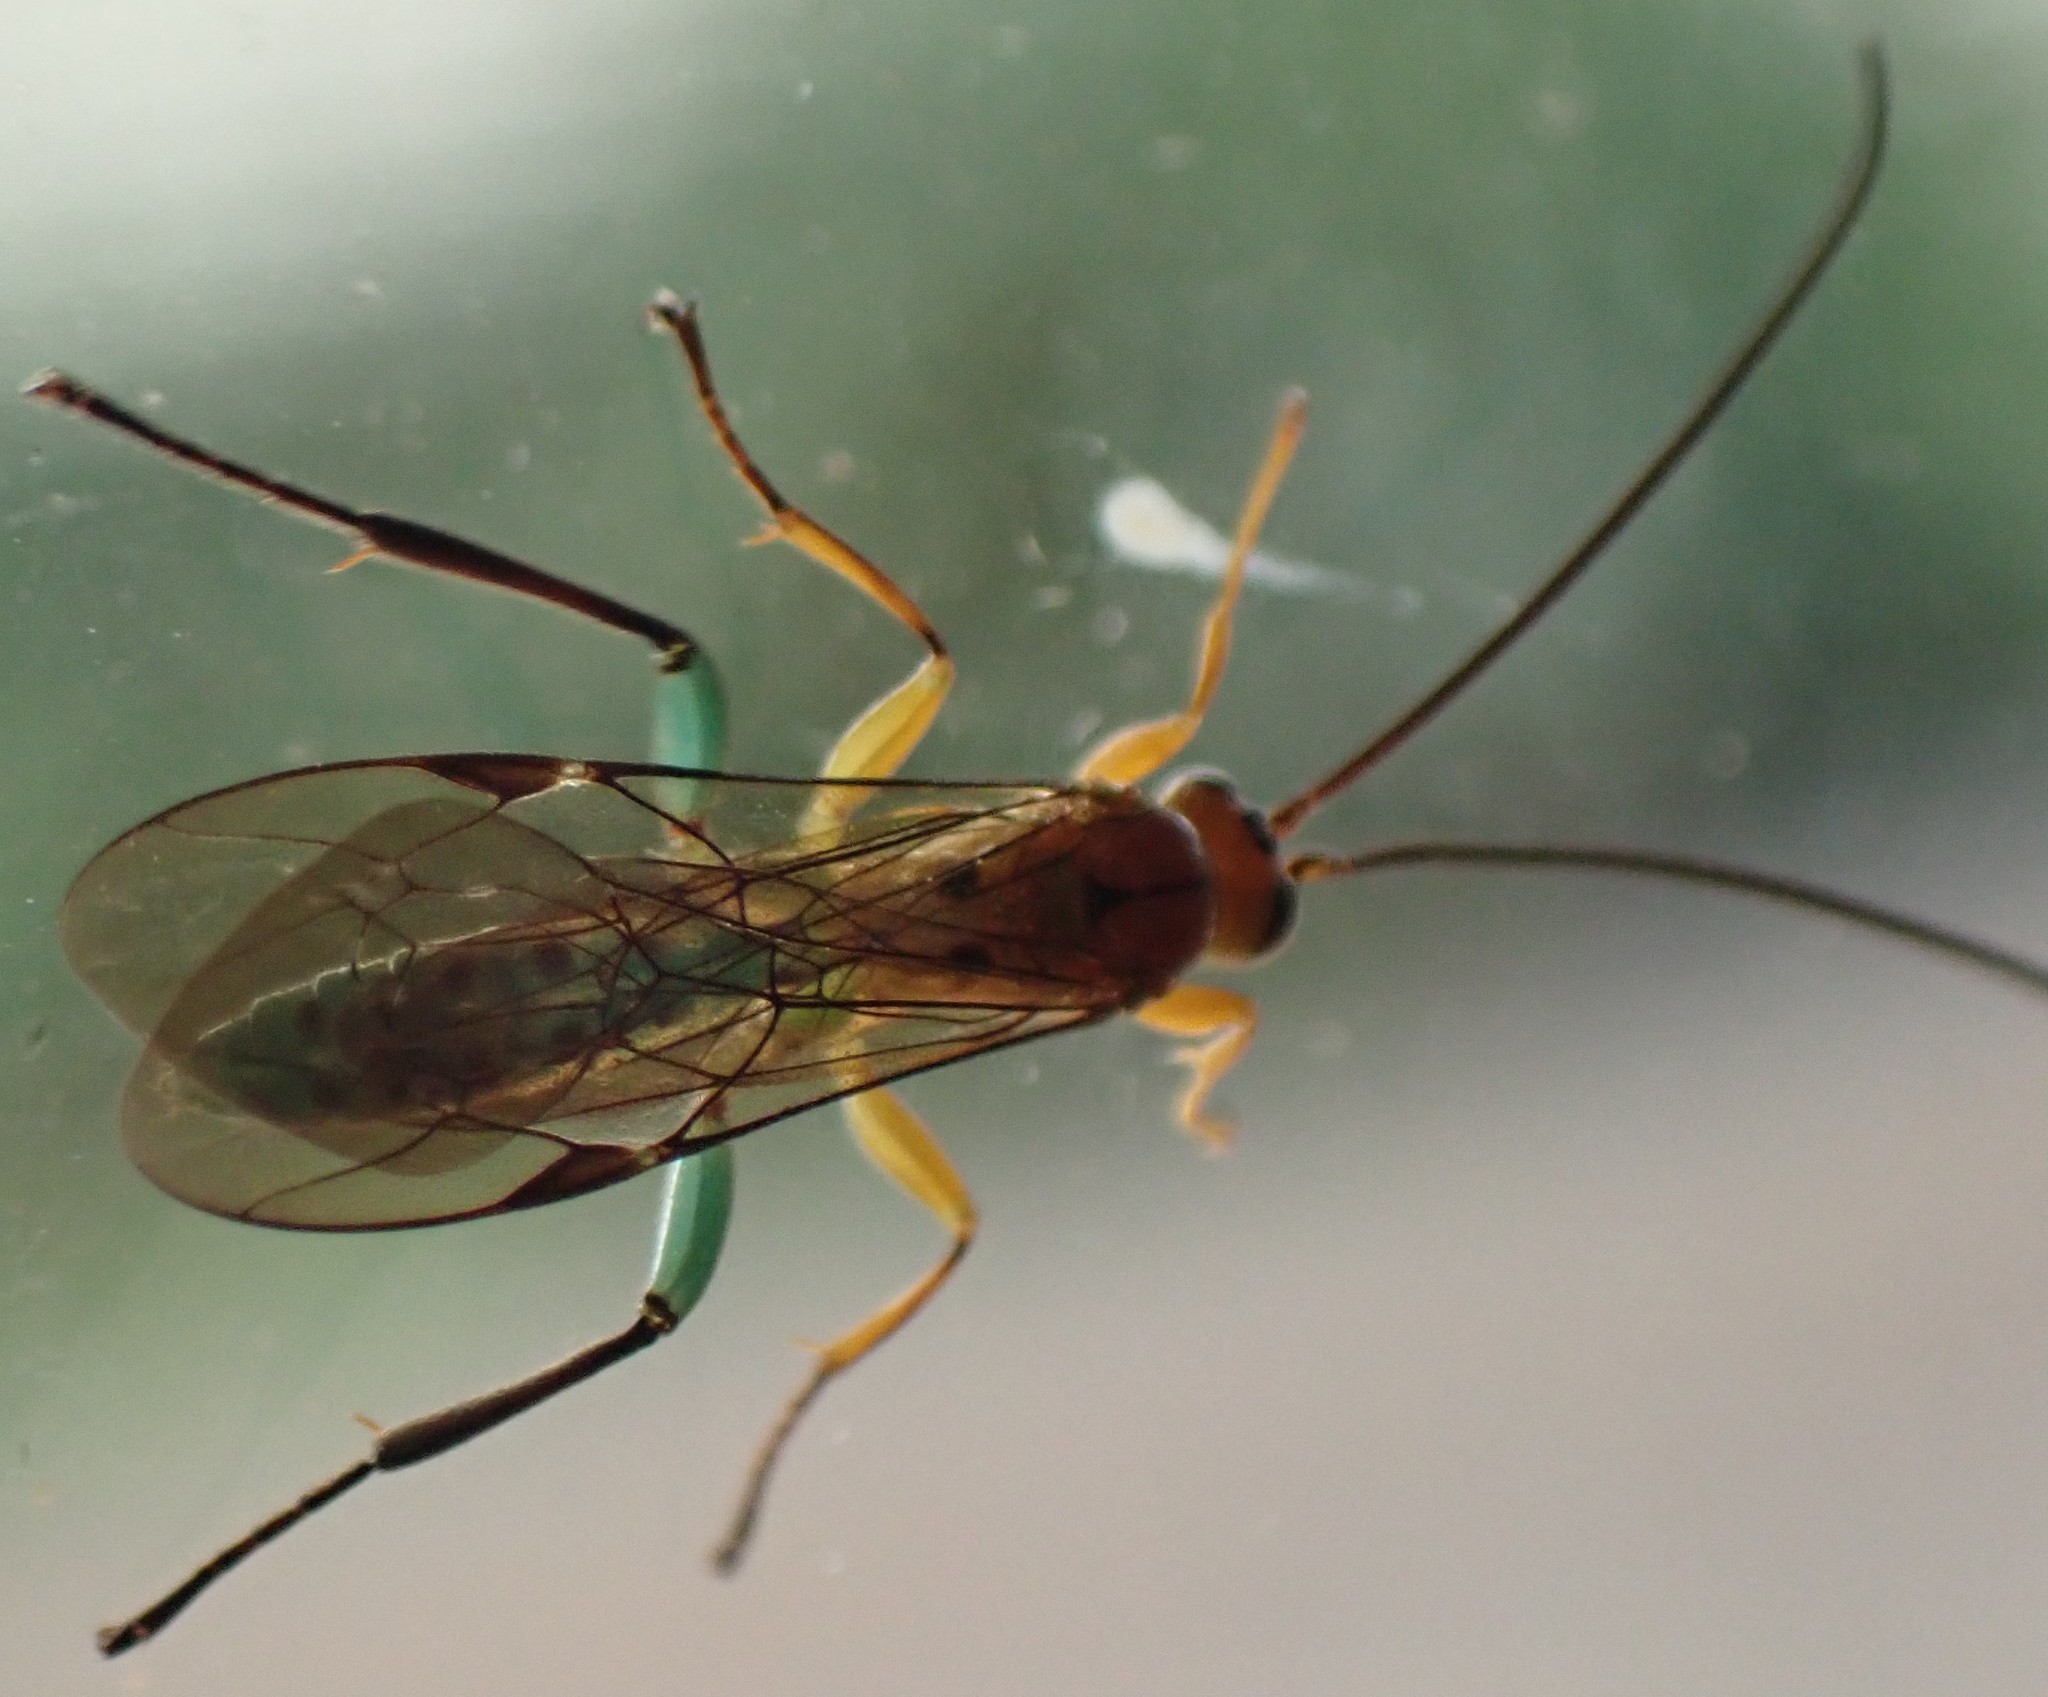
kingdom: Animalia
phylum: Arthropoda
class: Insecta
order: Hymenoptera
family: Ichneumonidae
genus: Theronia
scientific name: Theronia maculosa
